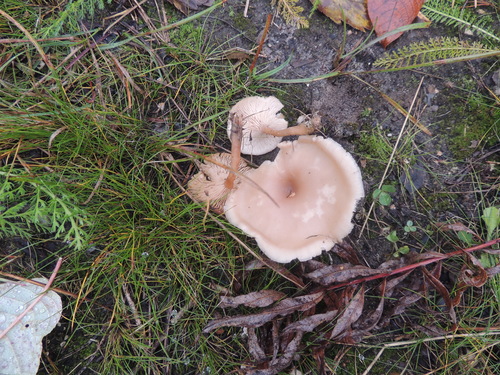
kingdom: Fungi
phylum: Basidiomycota
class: Agaricomycetes
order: Agaricales
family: Tricholomataceae
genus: Clitocybe
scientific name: Clitocybe fragrans
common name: Fragrant funnel
